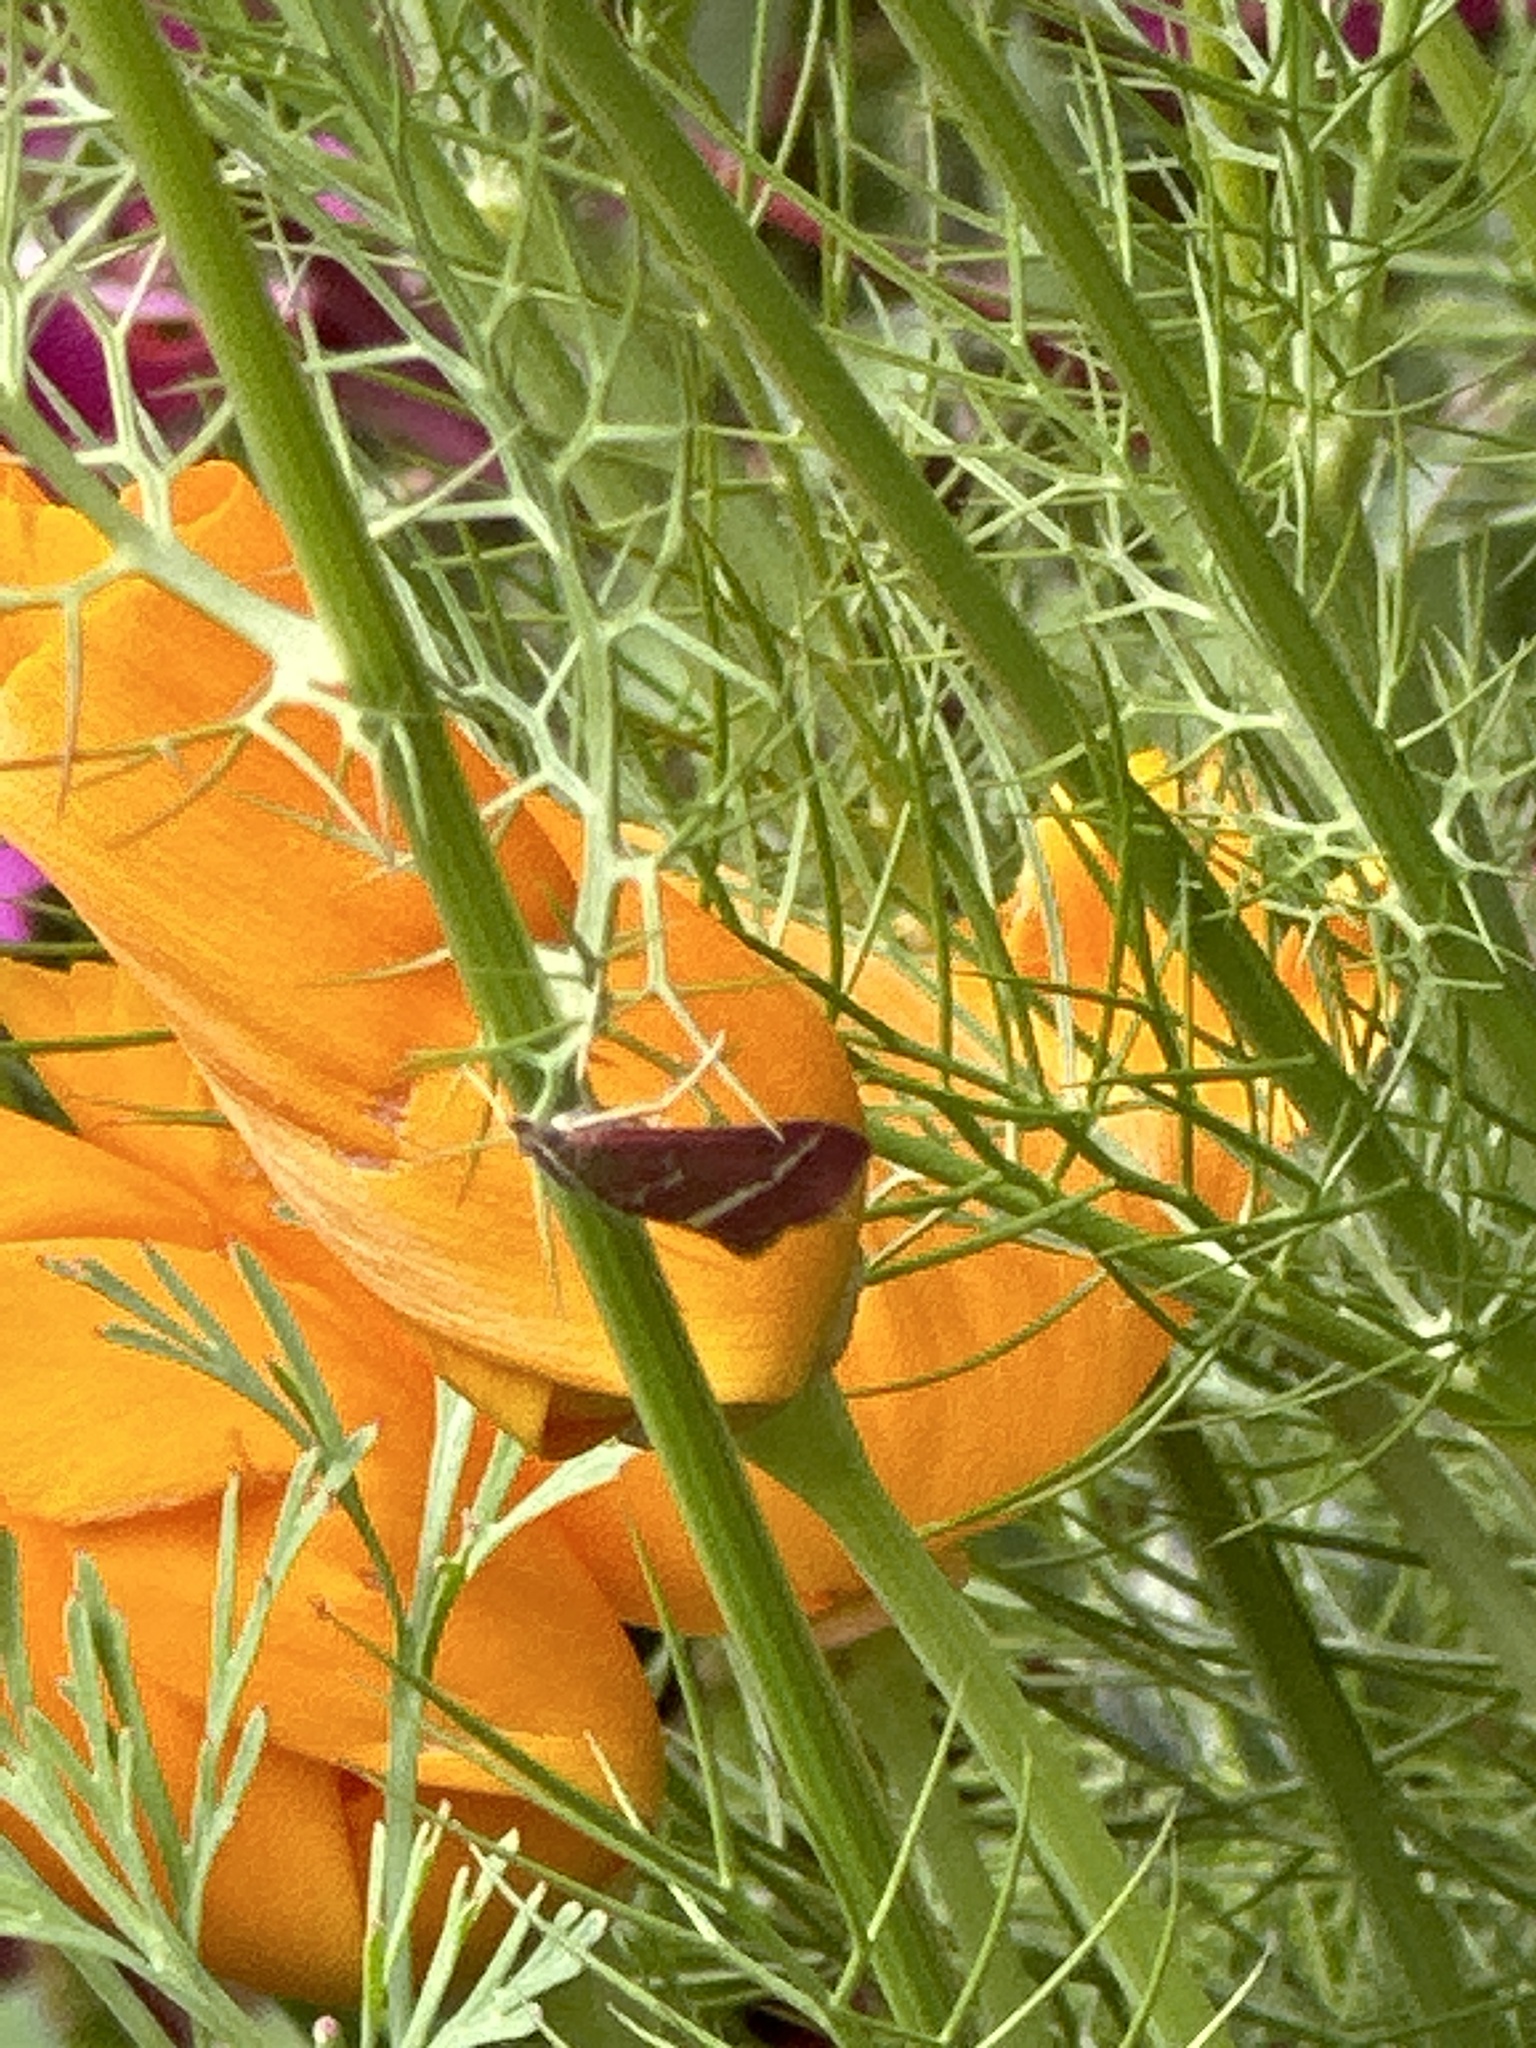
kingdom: Animalia
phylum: Arthropoda
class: Insecta
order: Lepidoptera
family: Crambidae
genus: Pyrausta
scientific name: Pyrausta volupialis
